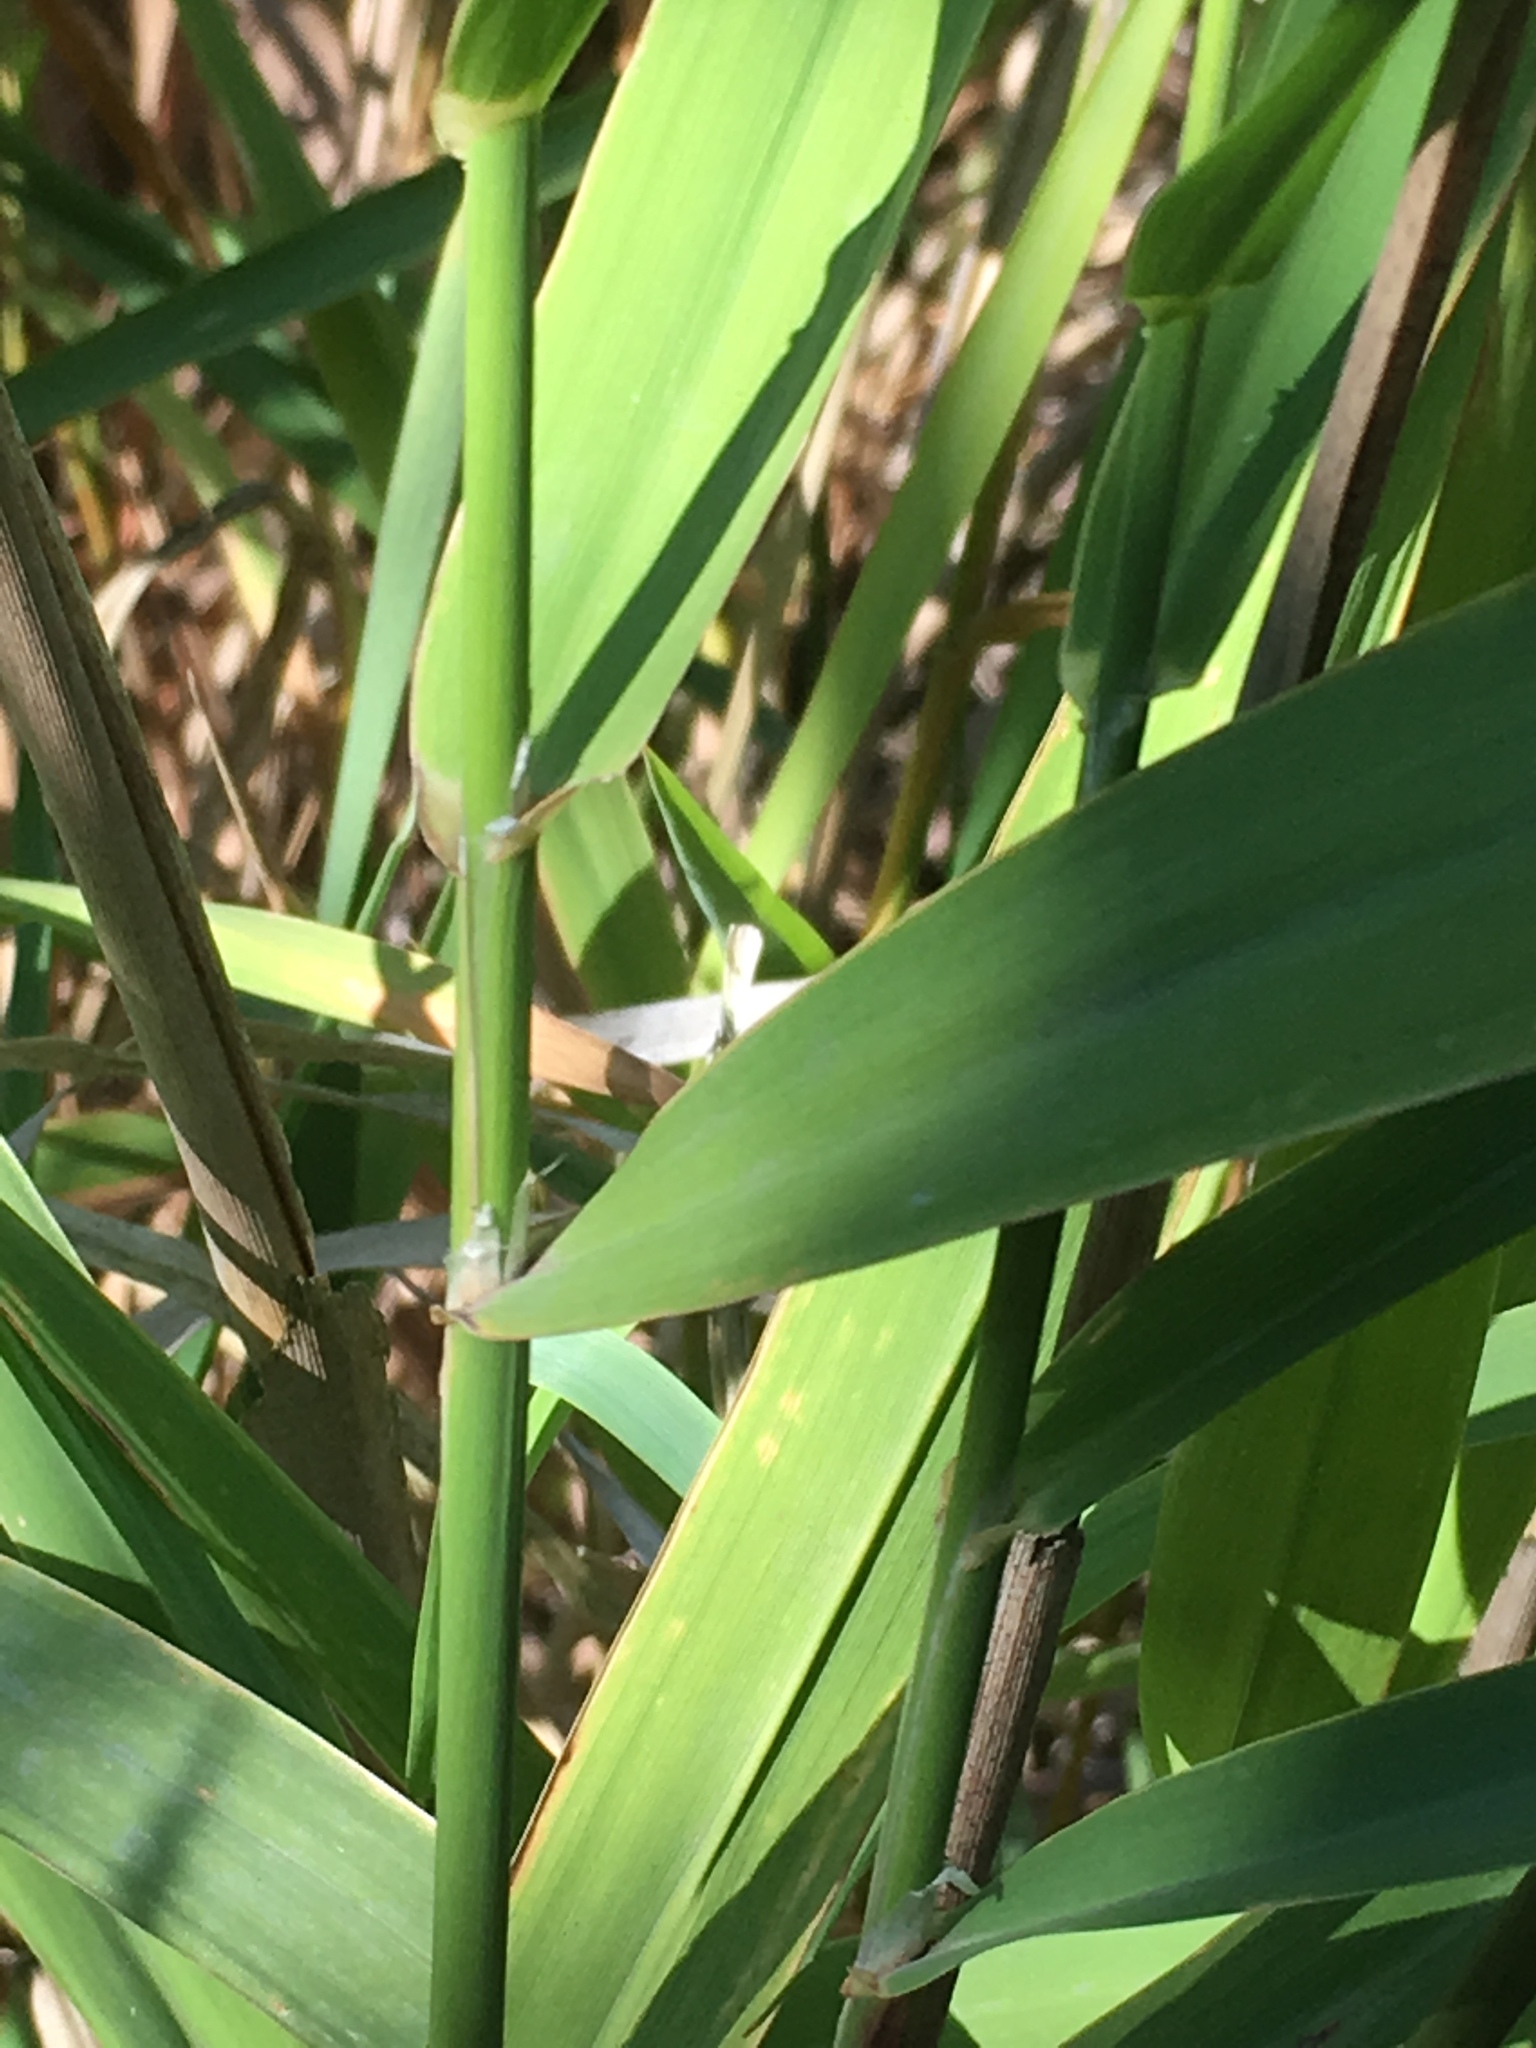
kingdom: Plantae
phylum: Tracheophyta
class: Liliopsida
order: Poales
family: Poaceae
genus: Phalaris
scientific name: Phalaris arundinacea
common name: Reed canary-grass
